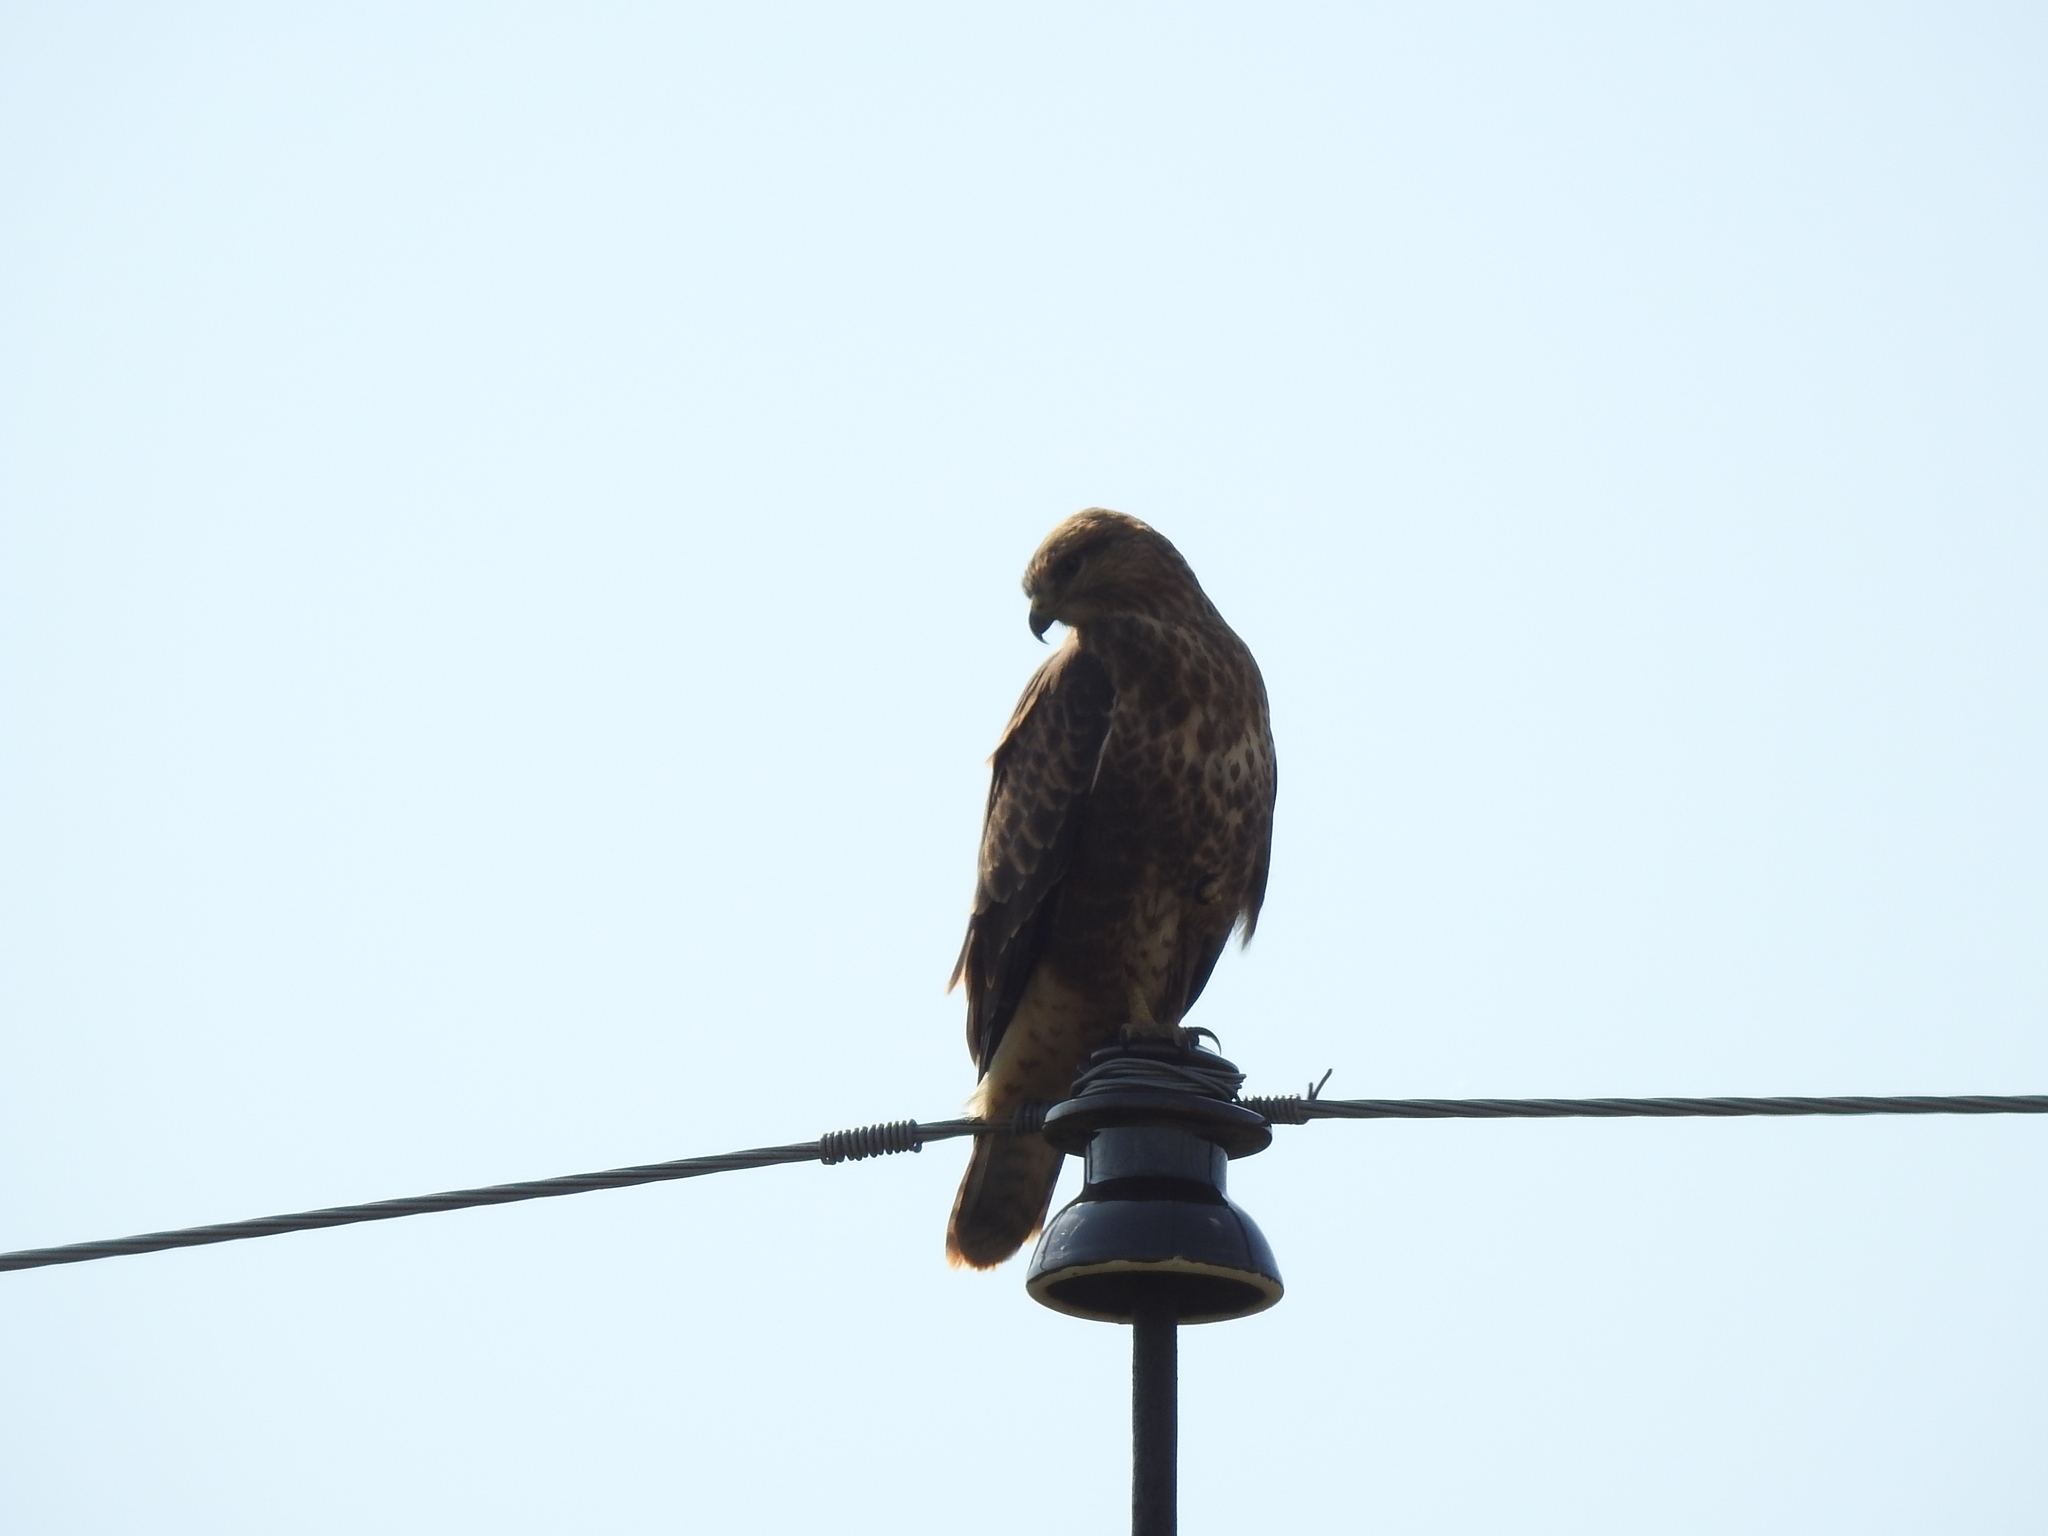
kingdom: Animalia
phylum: Chordata
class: Aves
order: Accipitriformes
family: Accipitridae
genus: Buteo
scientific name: Buteo buteo
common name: Common buzzard
